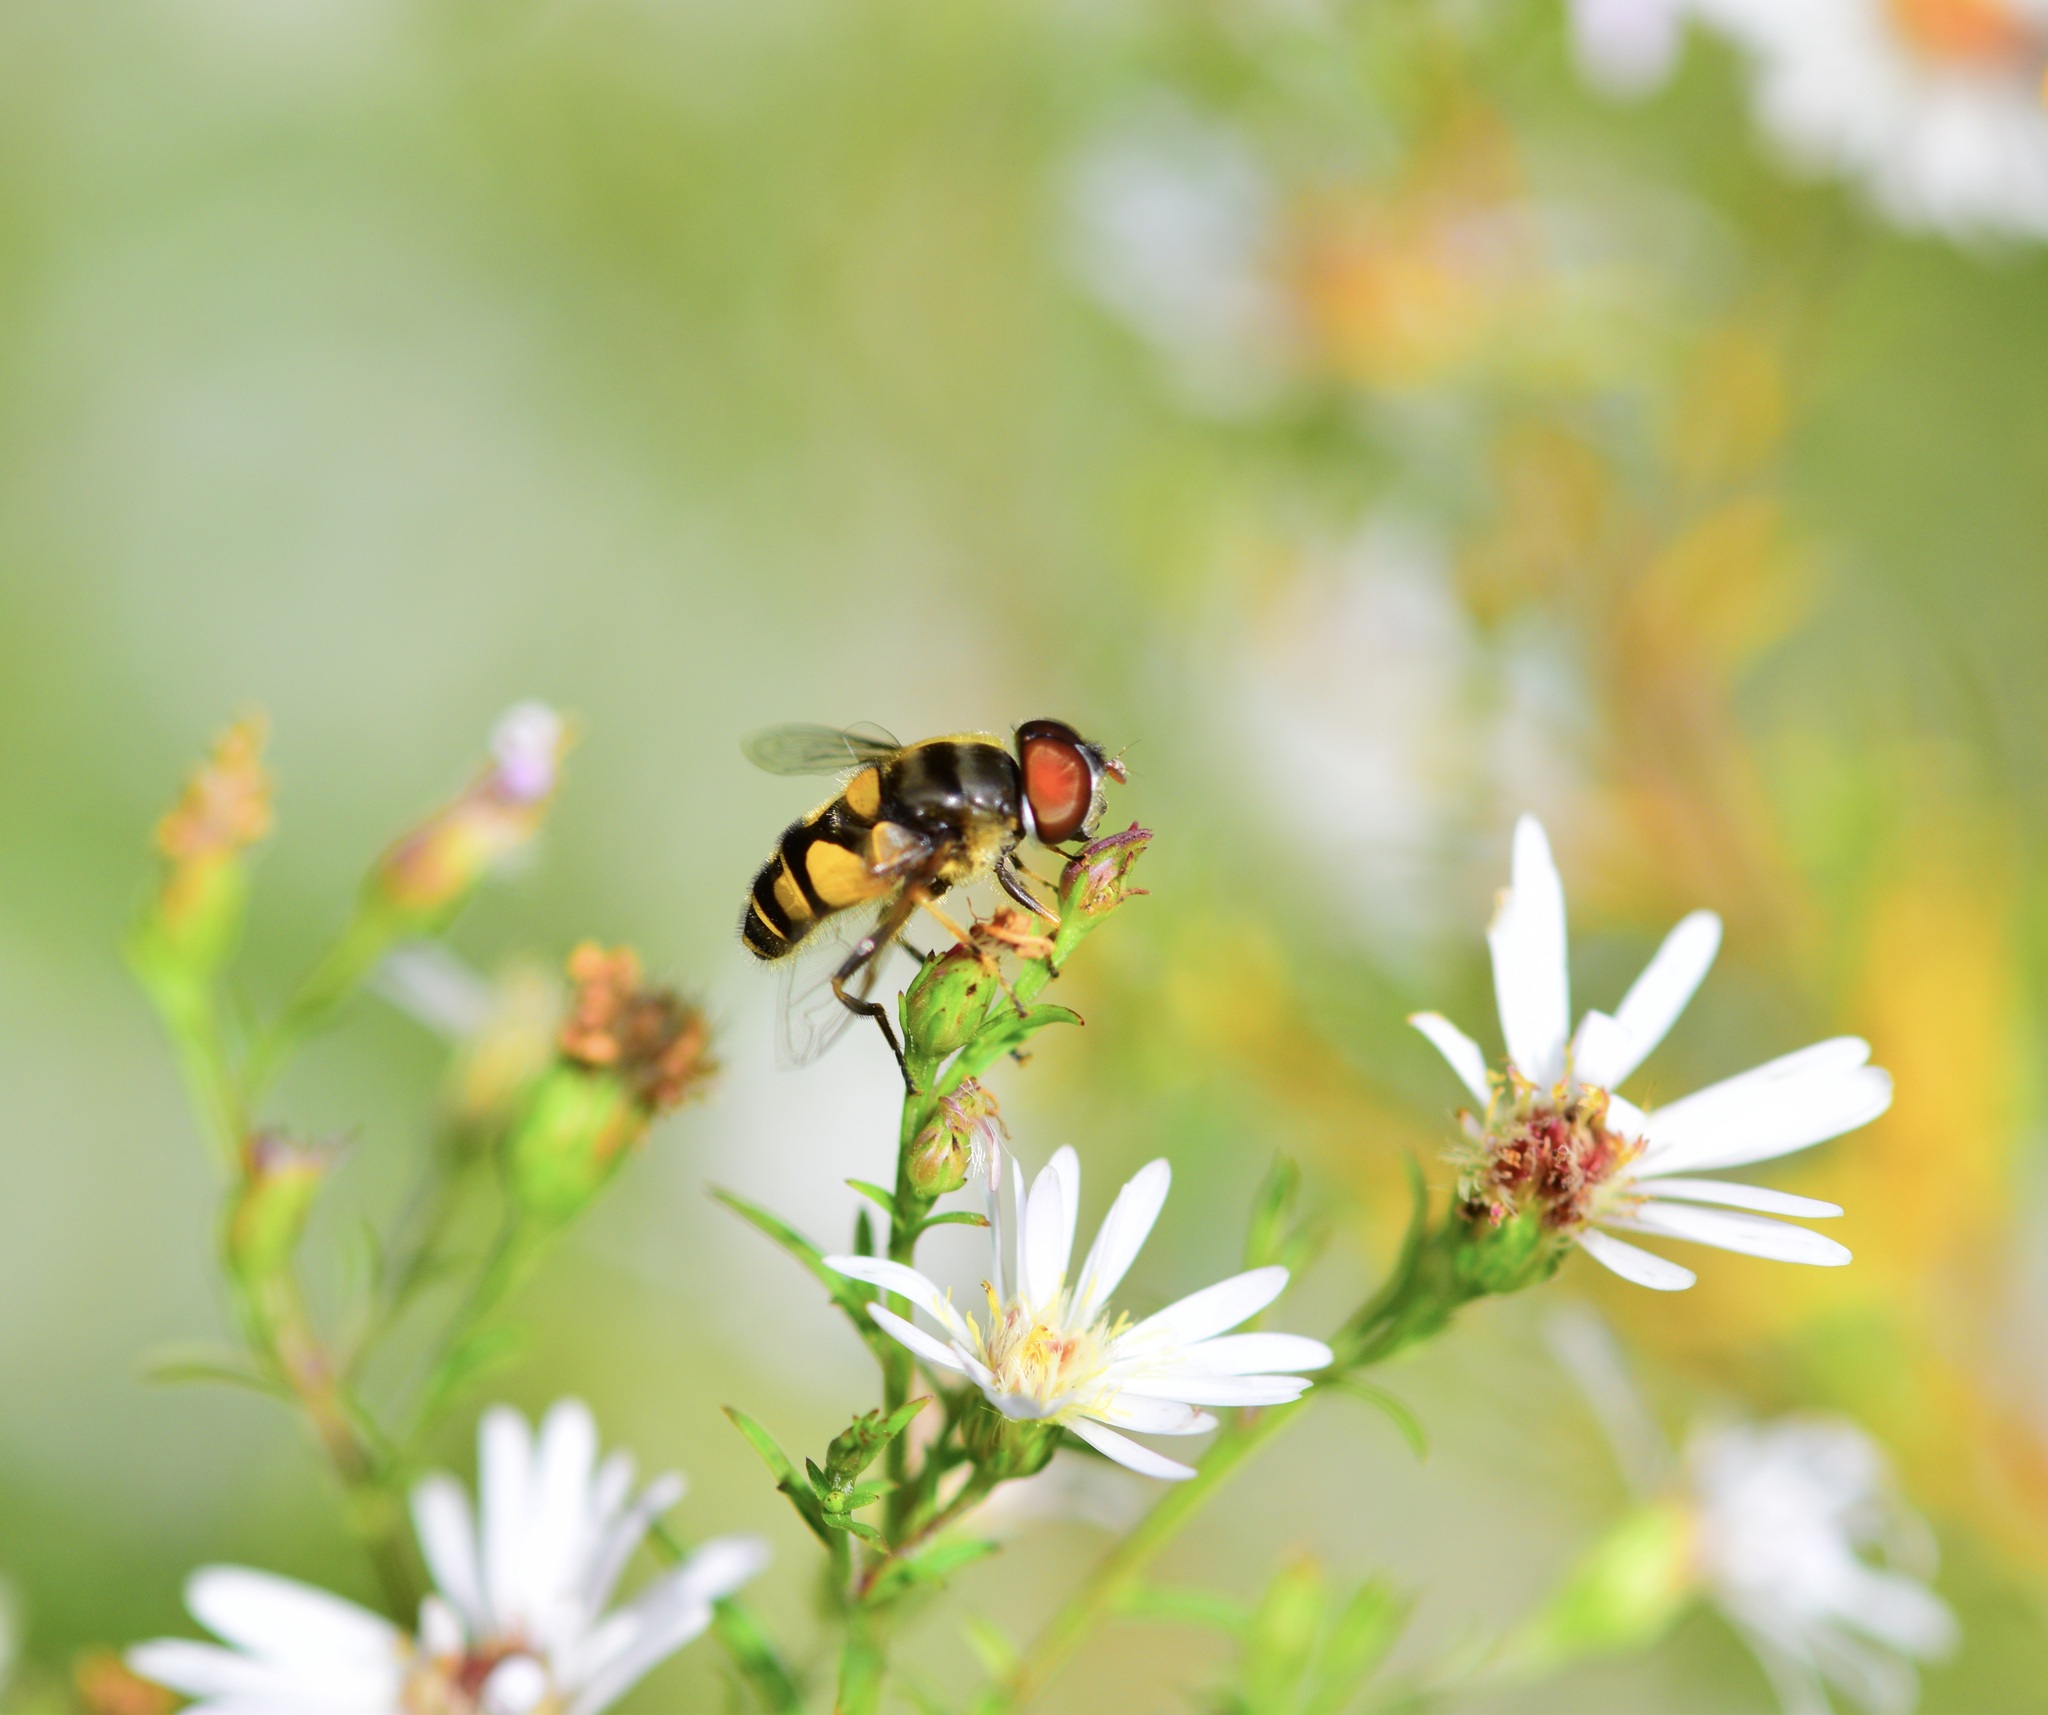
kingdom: Animalia
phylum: Arthropoda
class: Insecta
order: Diptera
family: Syrphidae
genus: Eristalis
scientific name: Eristalis transversa
